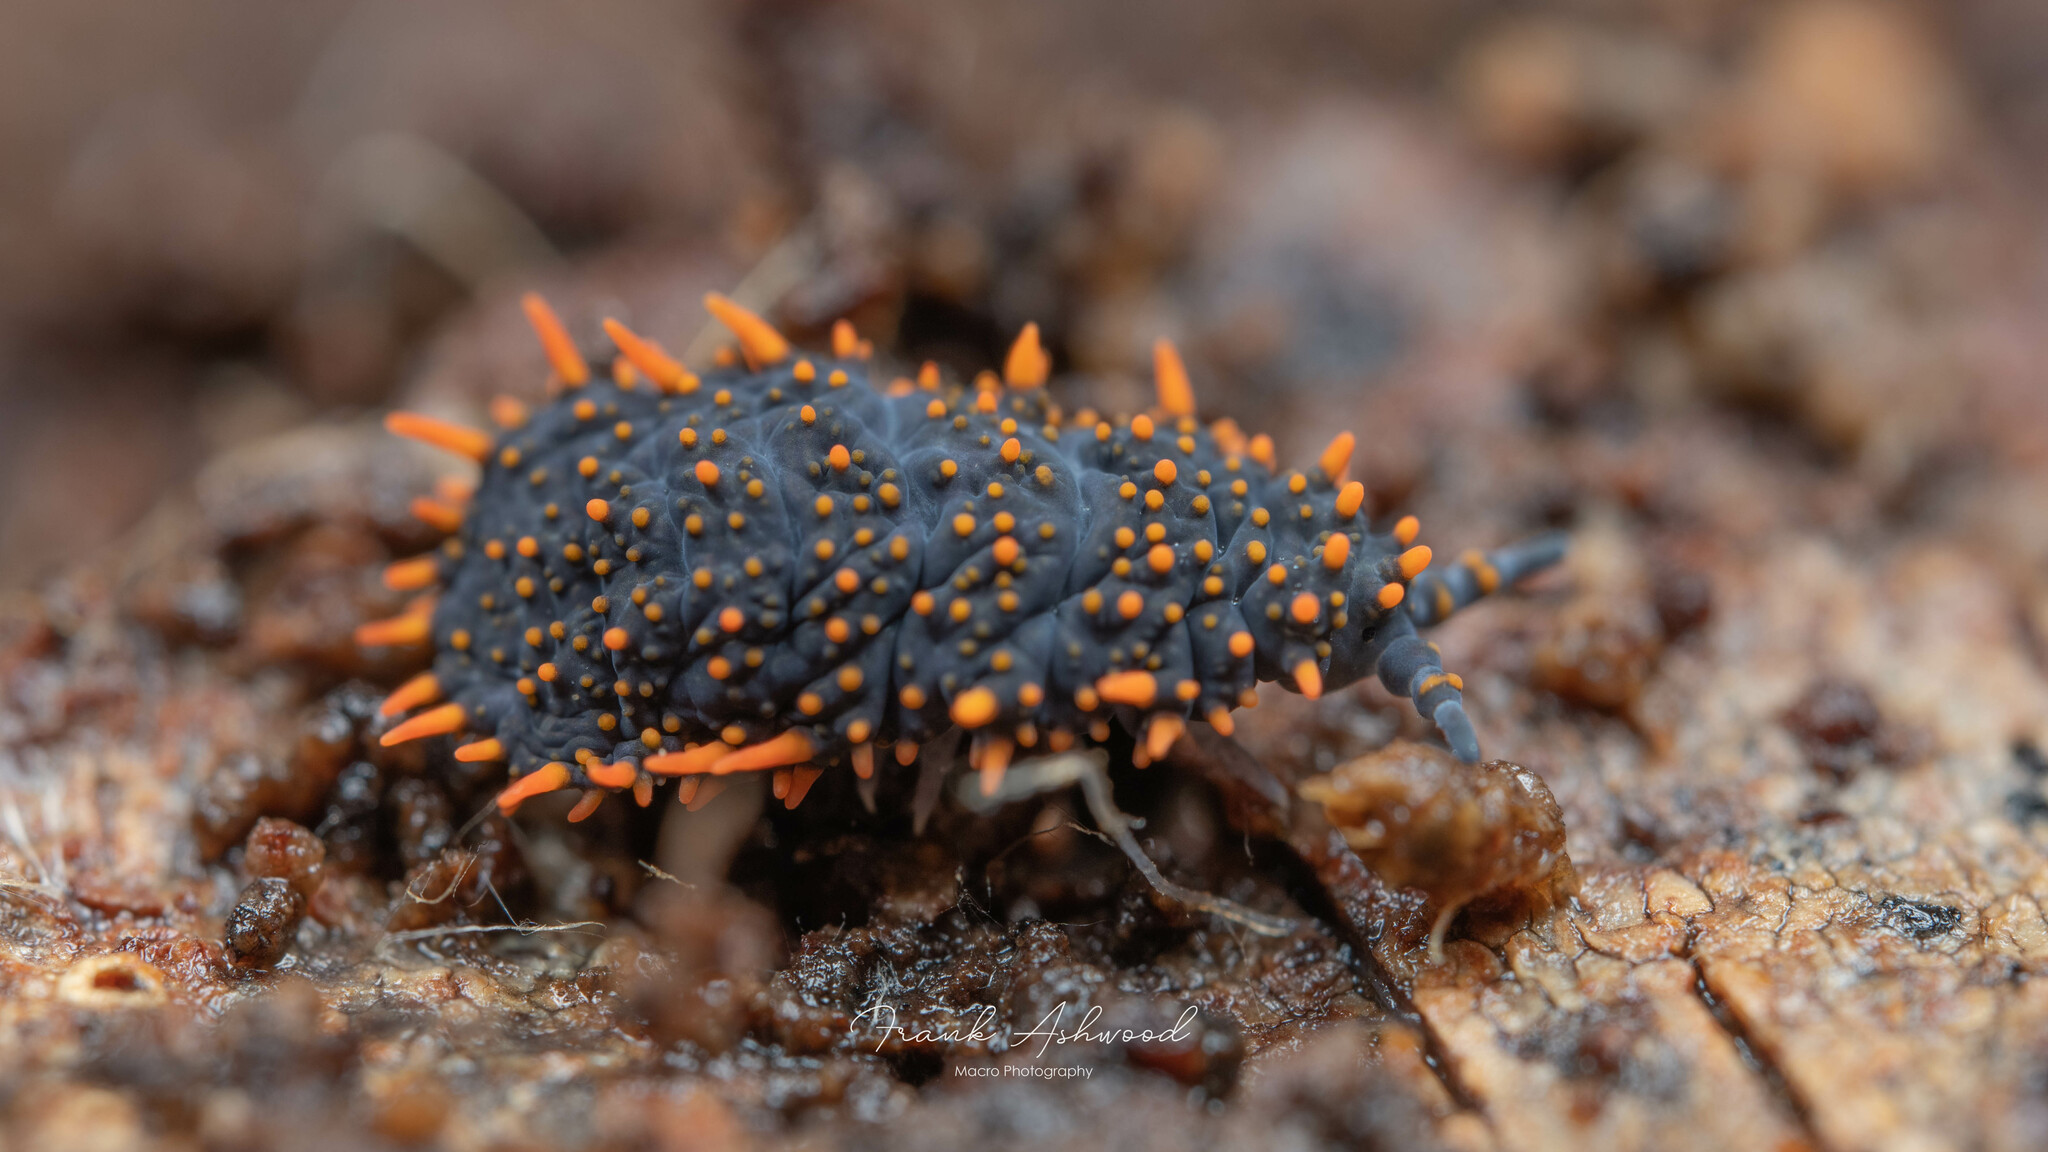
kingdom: Animalia
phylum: Arthropoda
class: Collembola
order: Poduromorpha
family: Neanuridae
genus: Holacanthella
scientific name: Holacanthella paucispinosa
